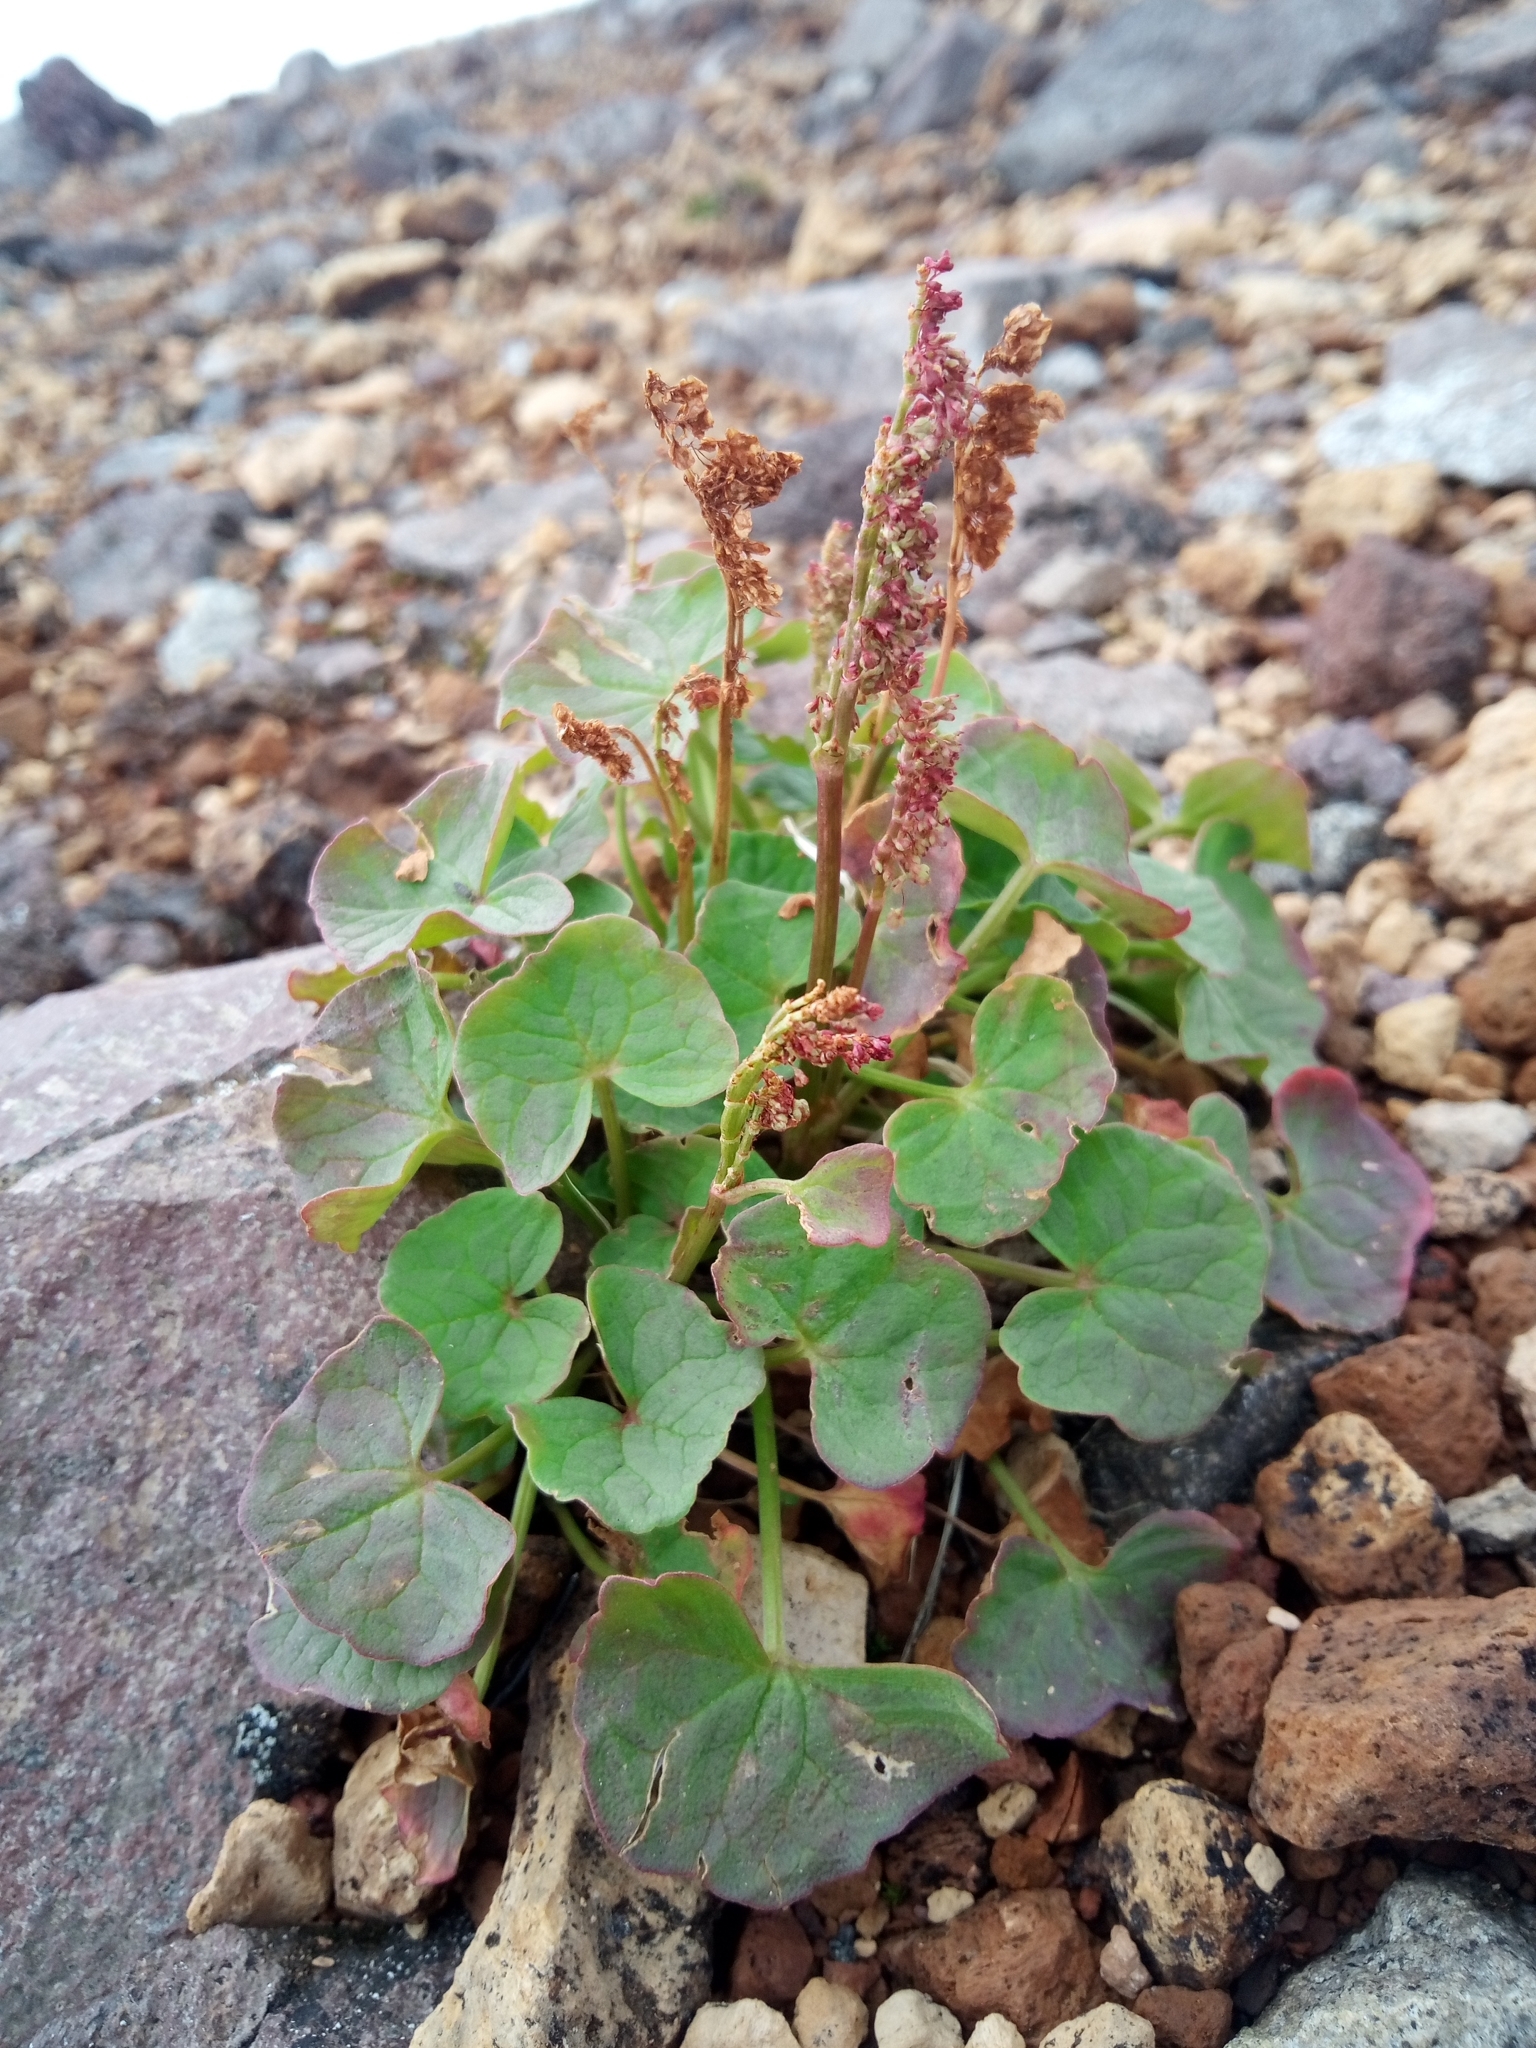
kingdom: Plantae
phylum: Tracheophyta
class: Magnoliopsida
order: Caryophyllales
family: Polygonaceae
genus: Oxyria
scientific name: Oxyria digyna
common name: Alpine mountain-sorrel
